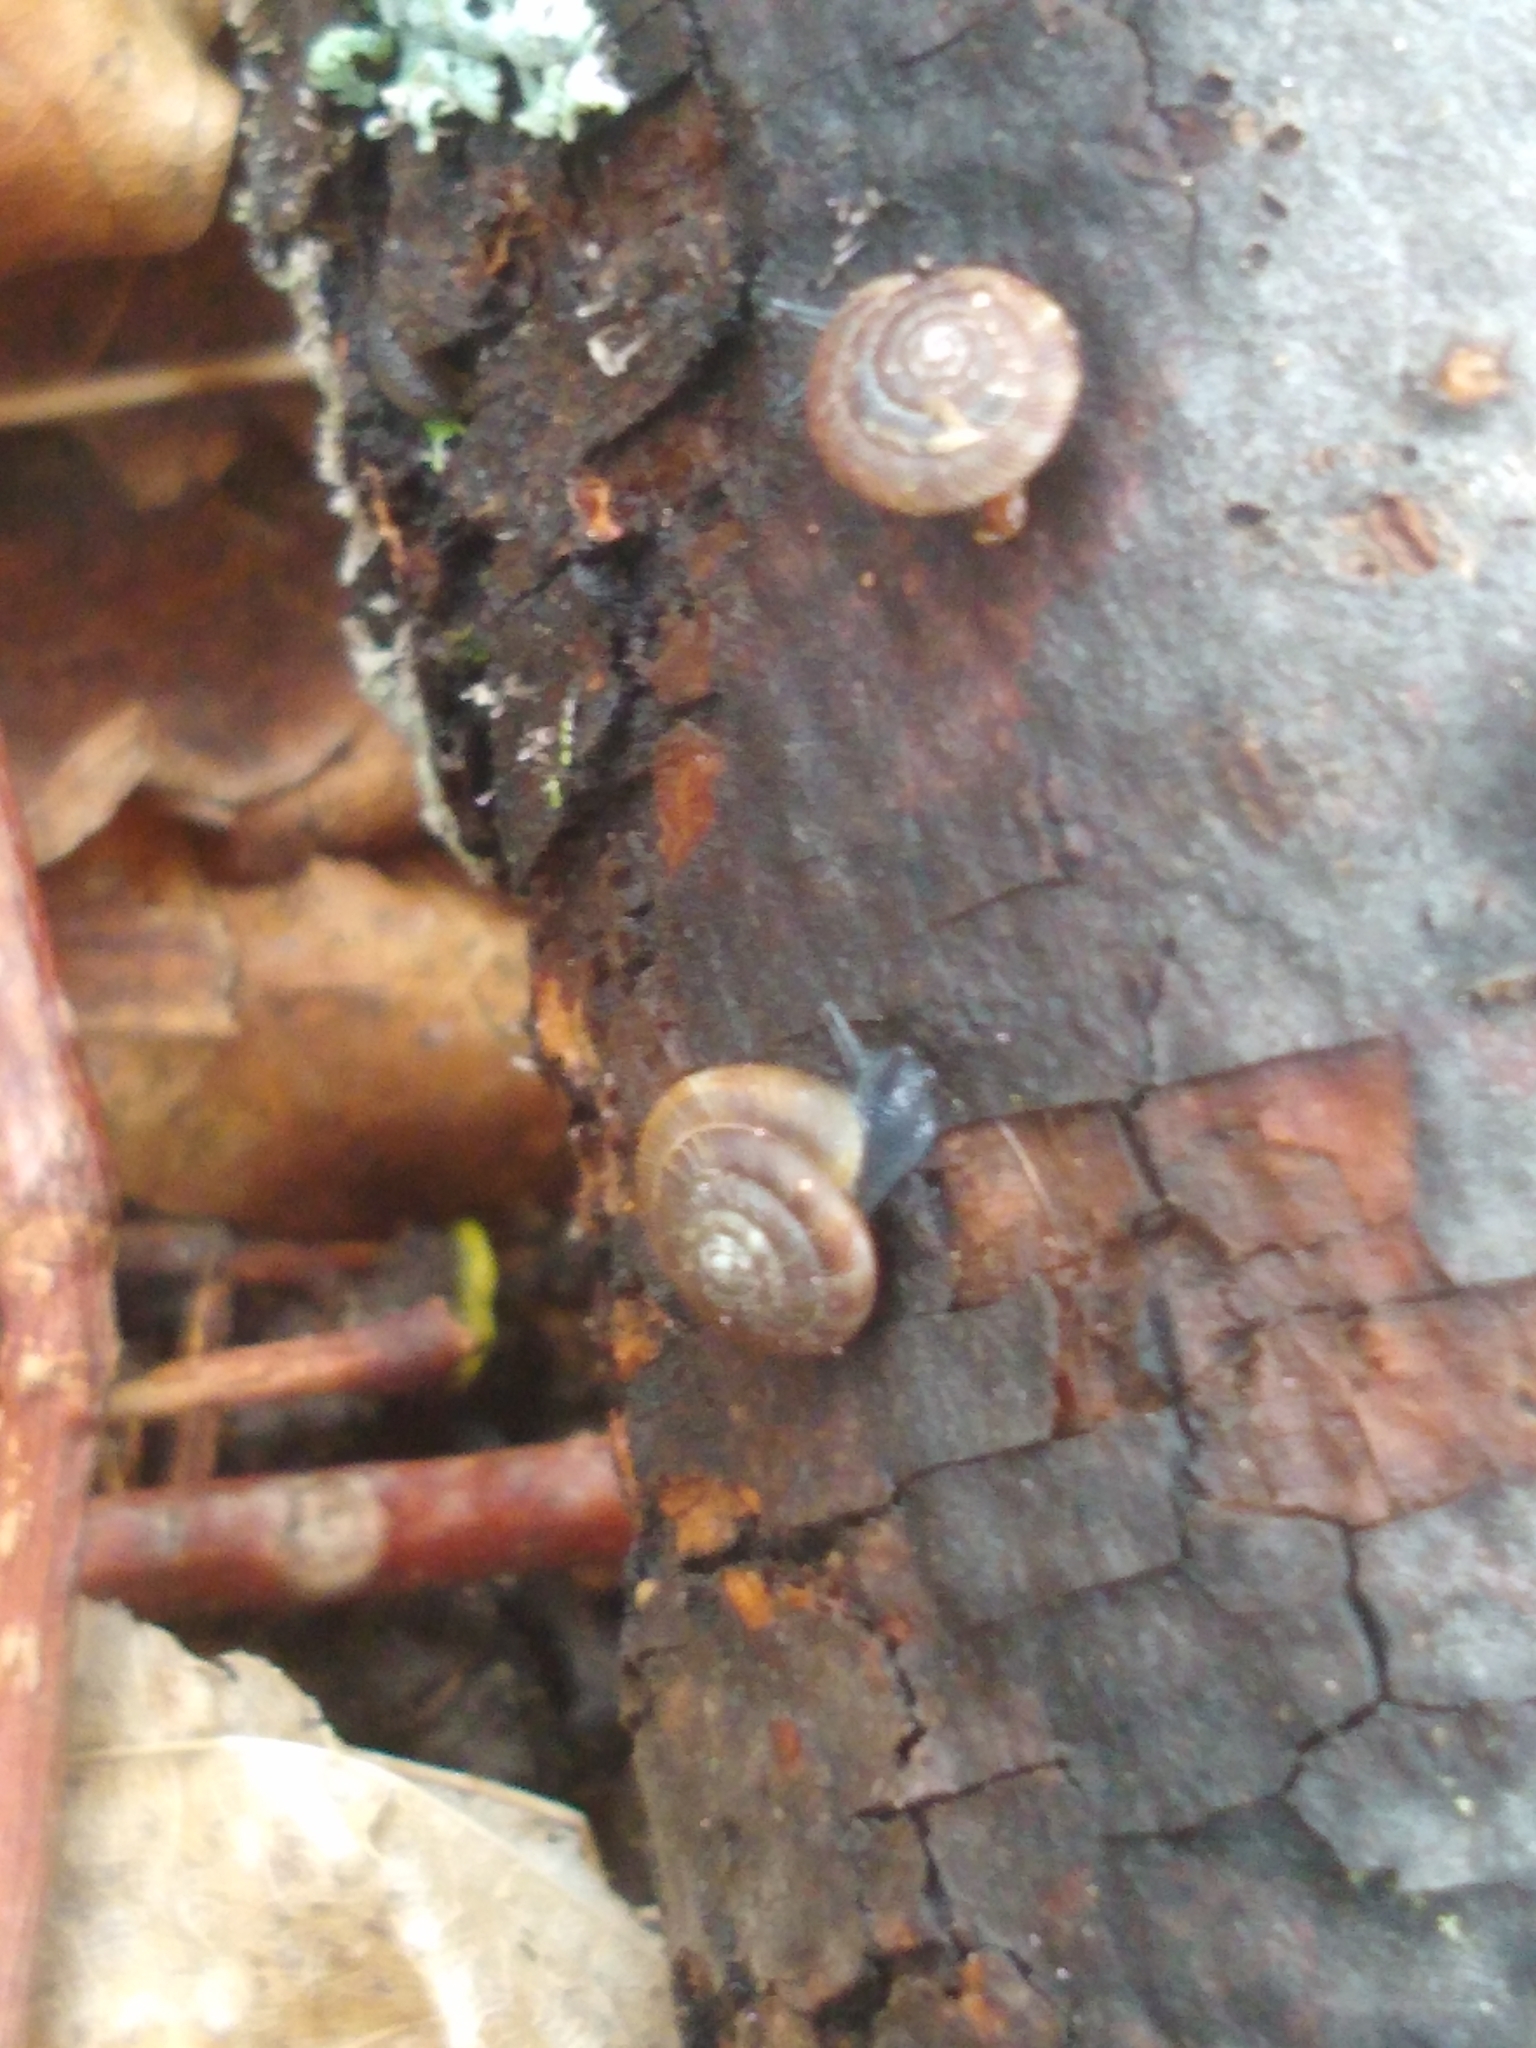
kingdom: Animalia
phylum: Mollusca
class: Gastropoda
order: Stylommatophora
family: Discidae
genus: Discus
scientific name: Discus rotundatus
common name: Rounded snail
